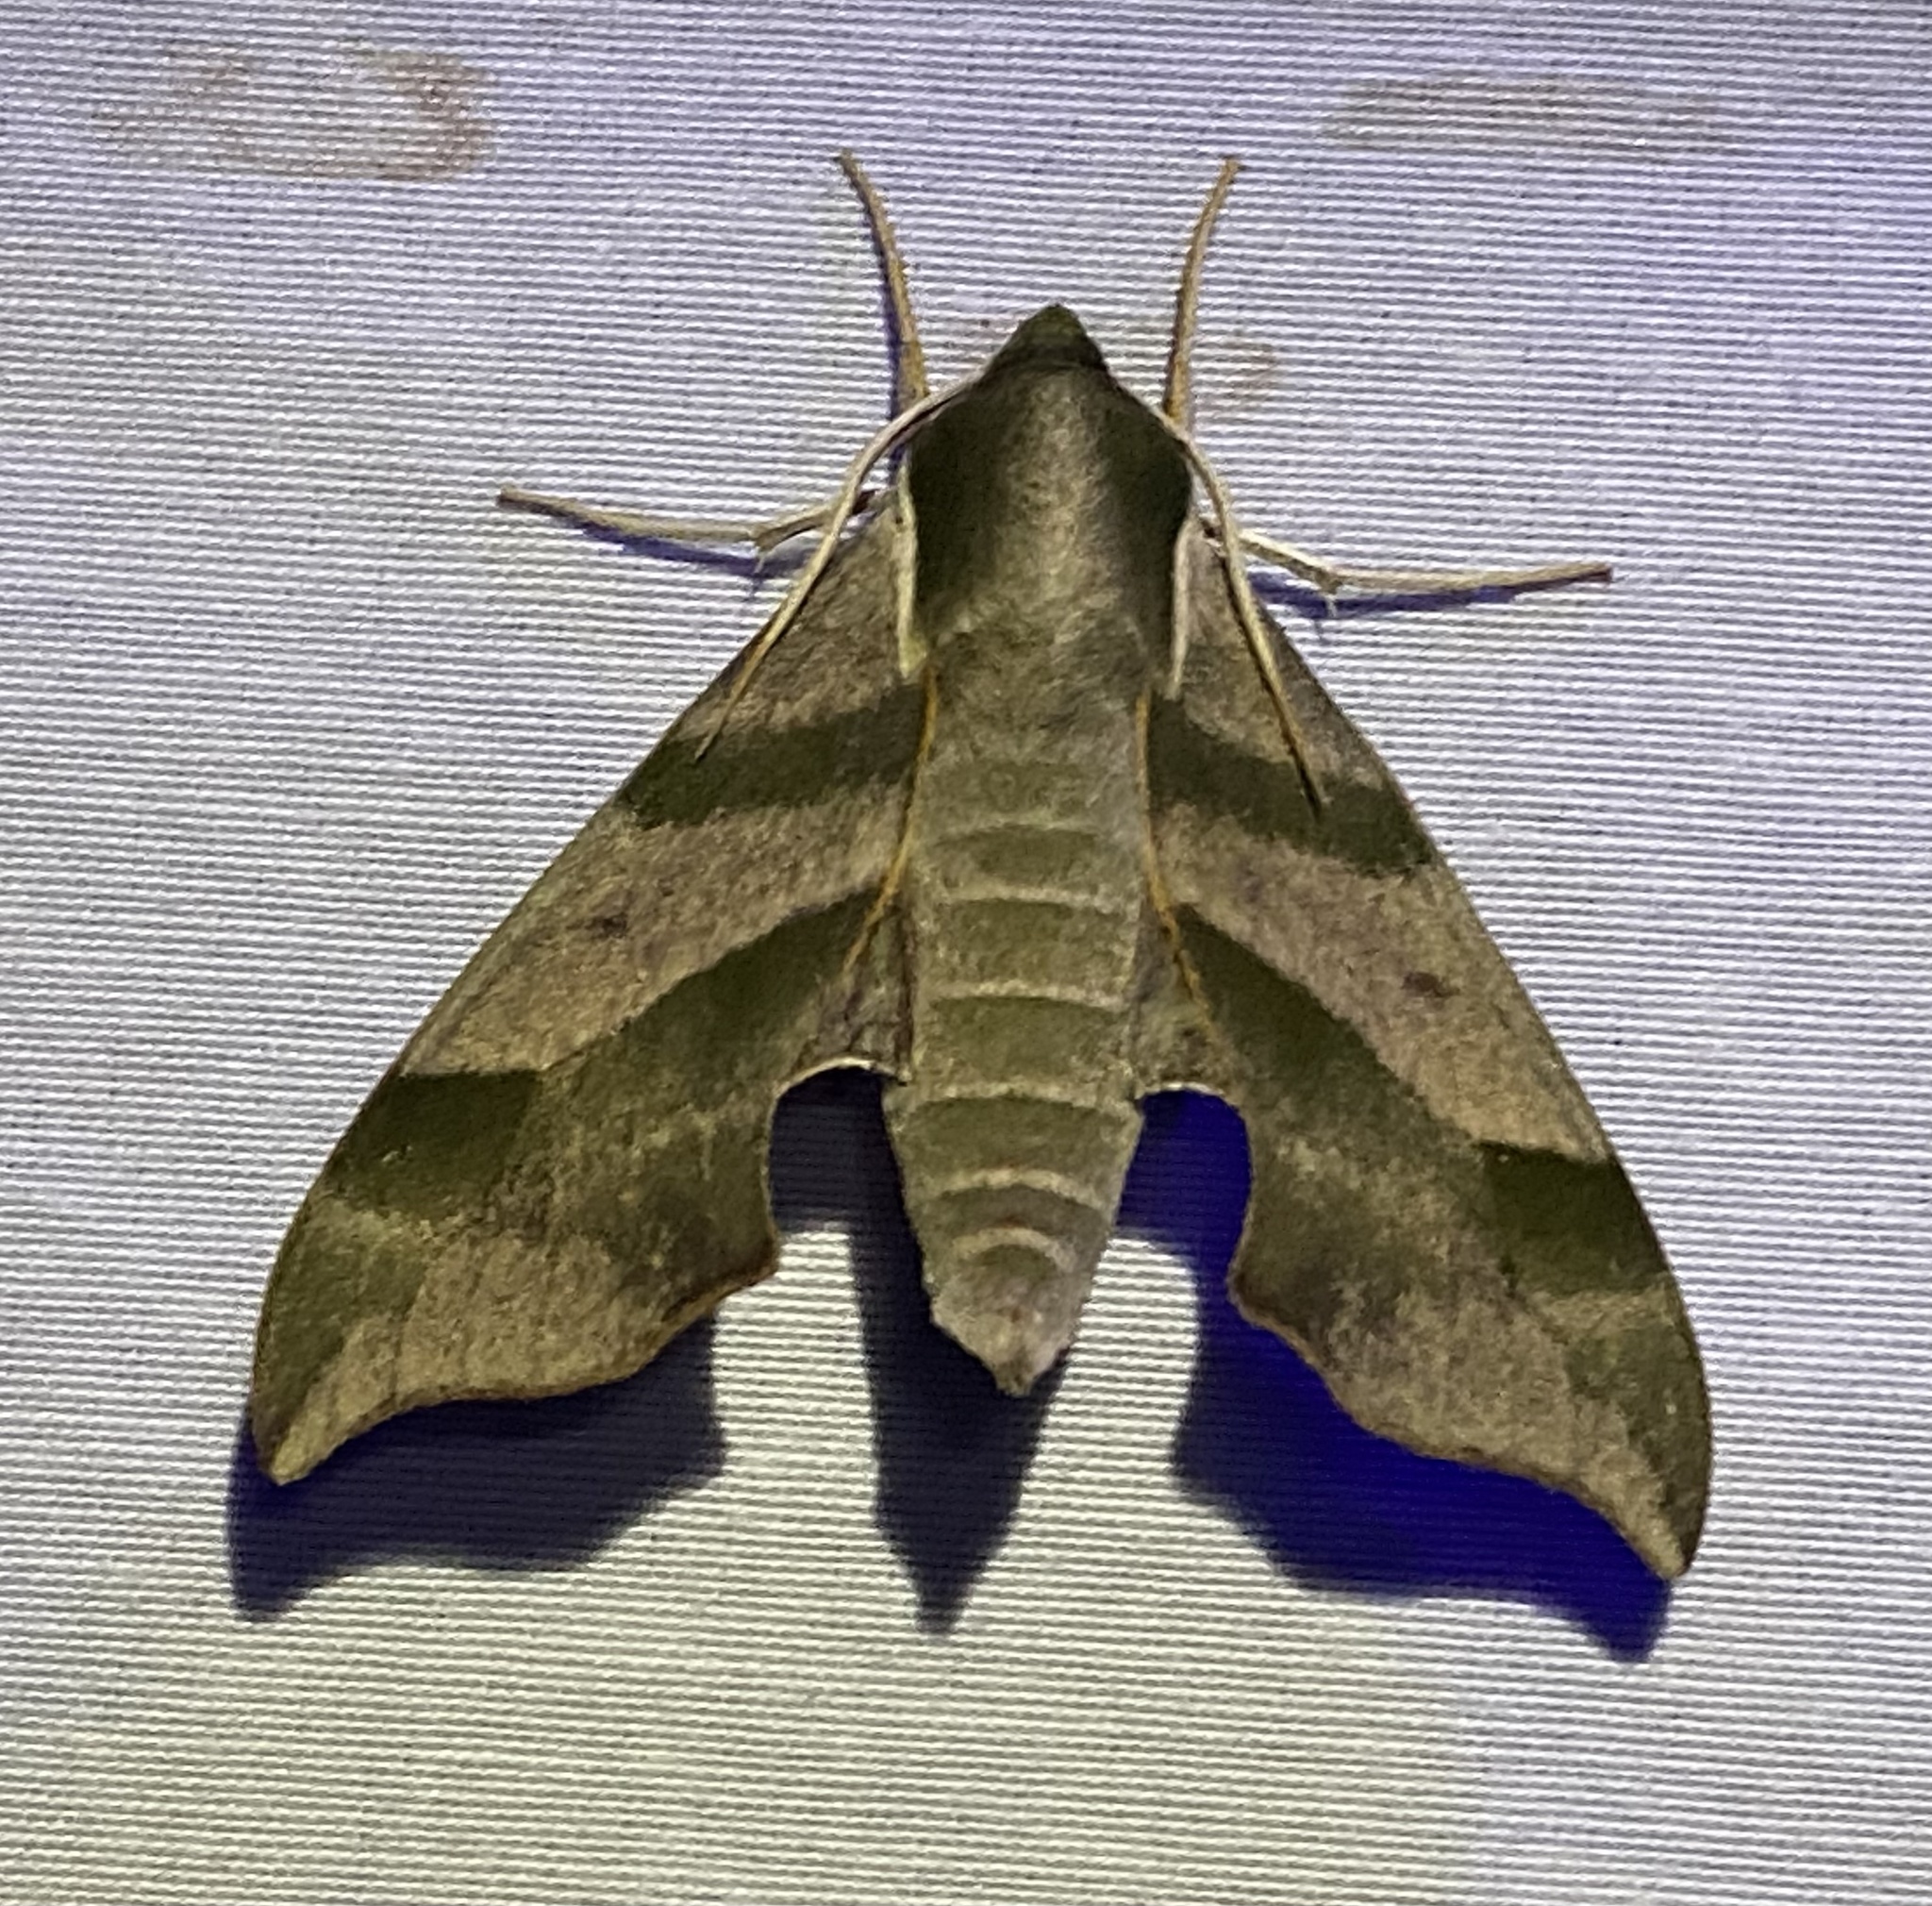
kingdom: Animalia
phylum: Arthropoda
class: Insecta
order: Lepidoptera
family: Sphingidae
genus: Darapsa
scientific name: Darapsa myron
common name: Hog sphinx
